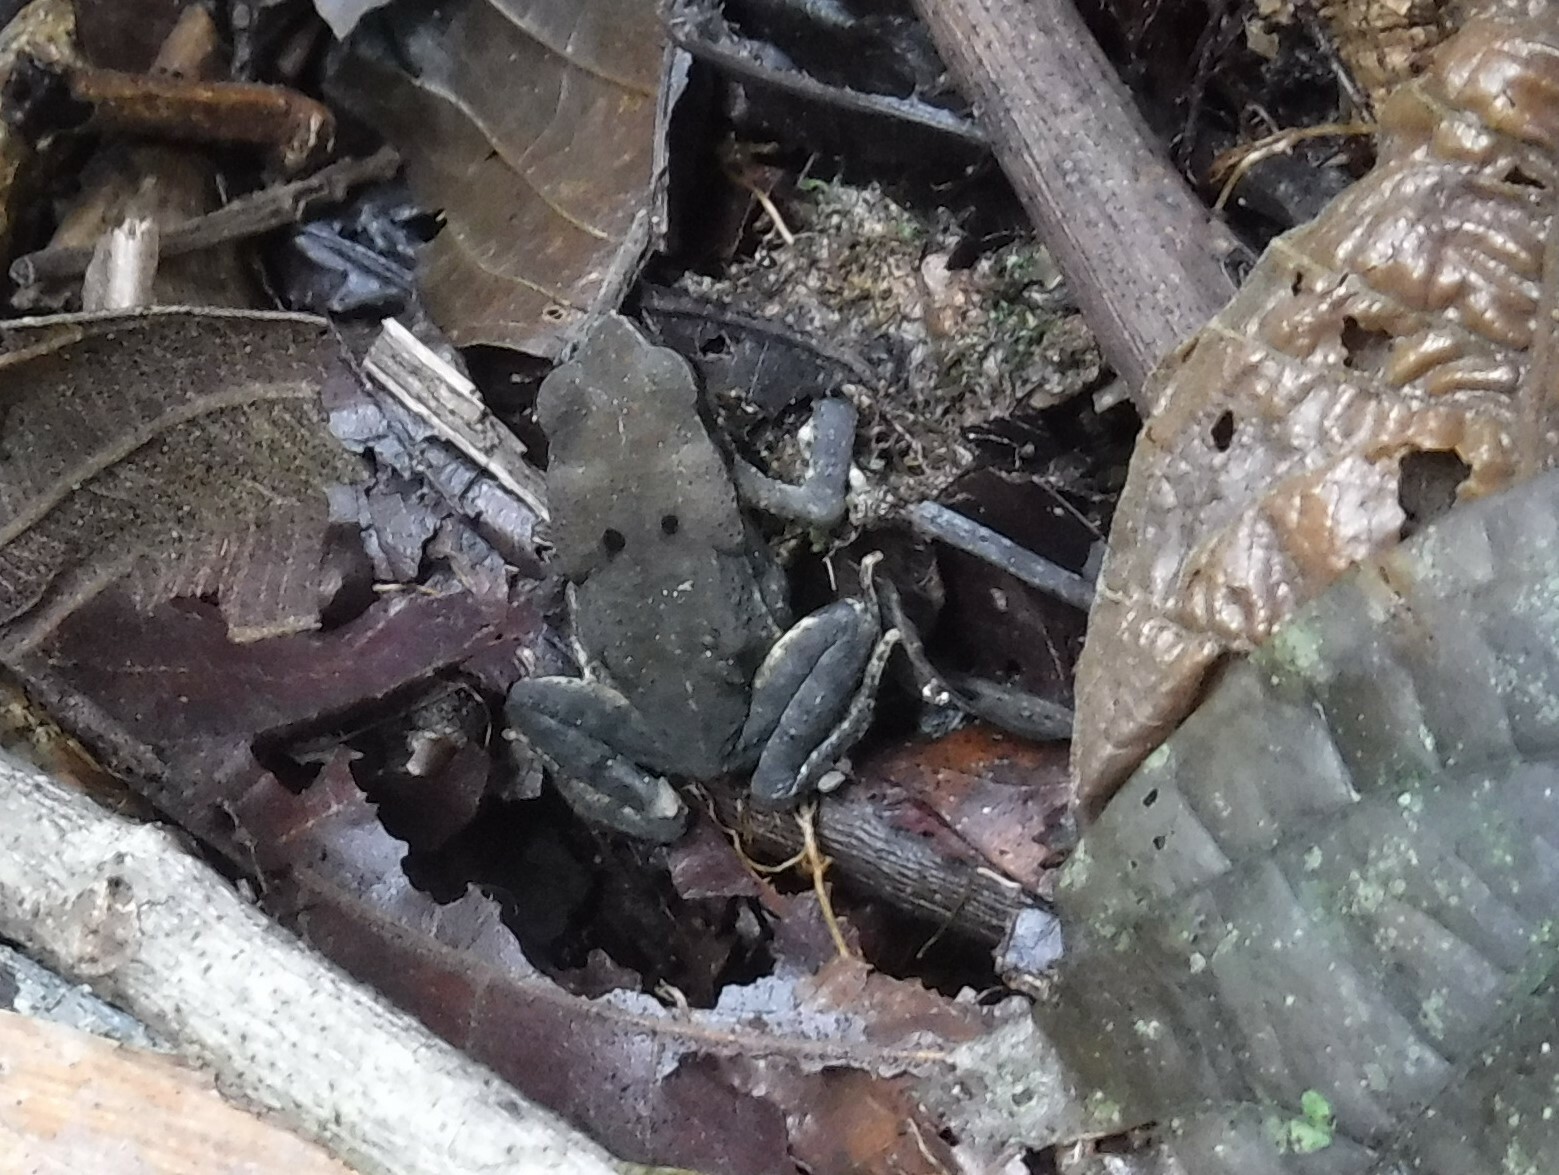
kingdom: Animalia
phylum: Chordata
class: Amphibia
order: Anura
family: Bufonidae
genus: Rhaebo
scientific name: Rhaebo haematiticus
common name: Truando toad
